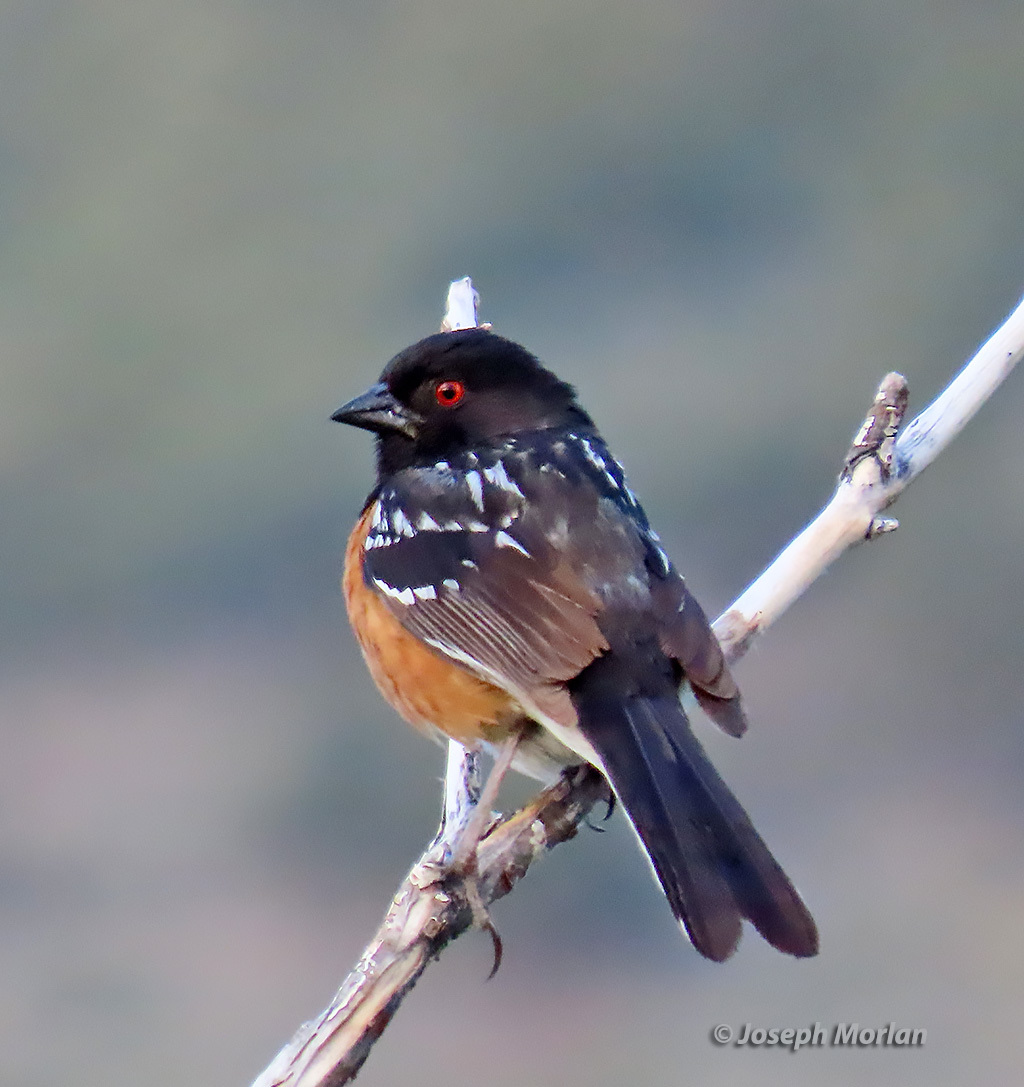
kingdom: Animalia
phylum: Chordata
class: Aves
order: Passeriformes
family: Passerellidae
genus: Pipilo
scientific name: Pipilo maculatus
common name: Spotted towhee
